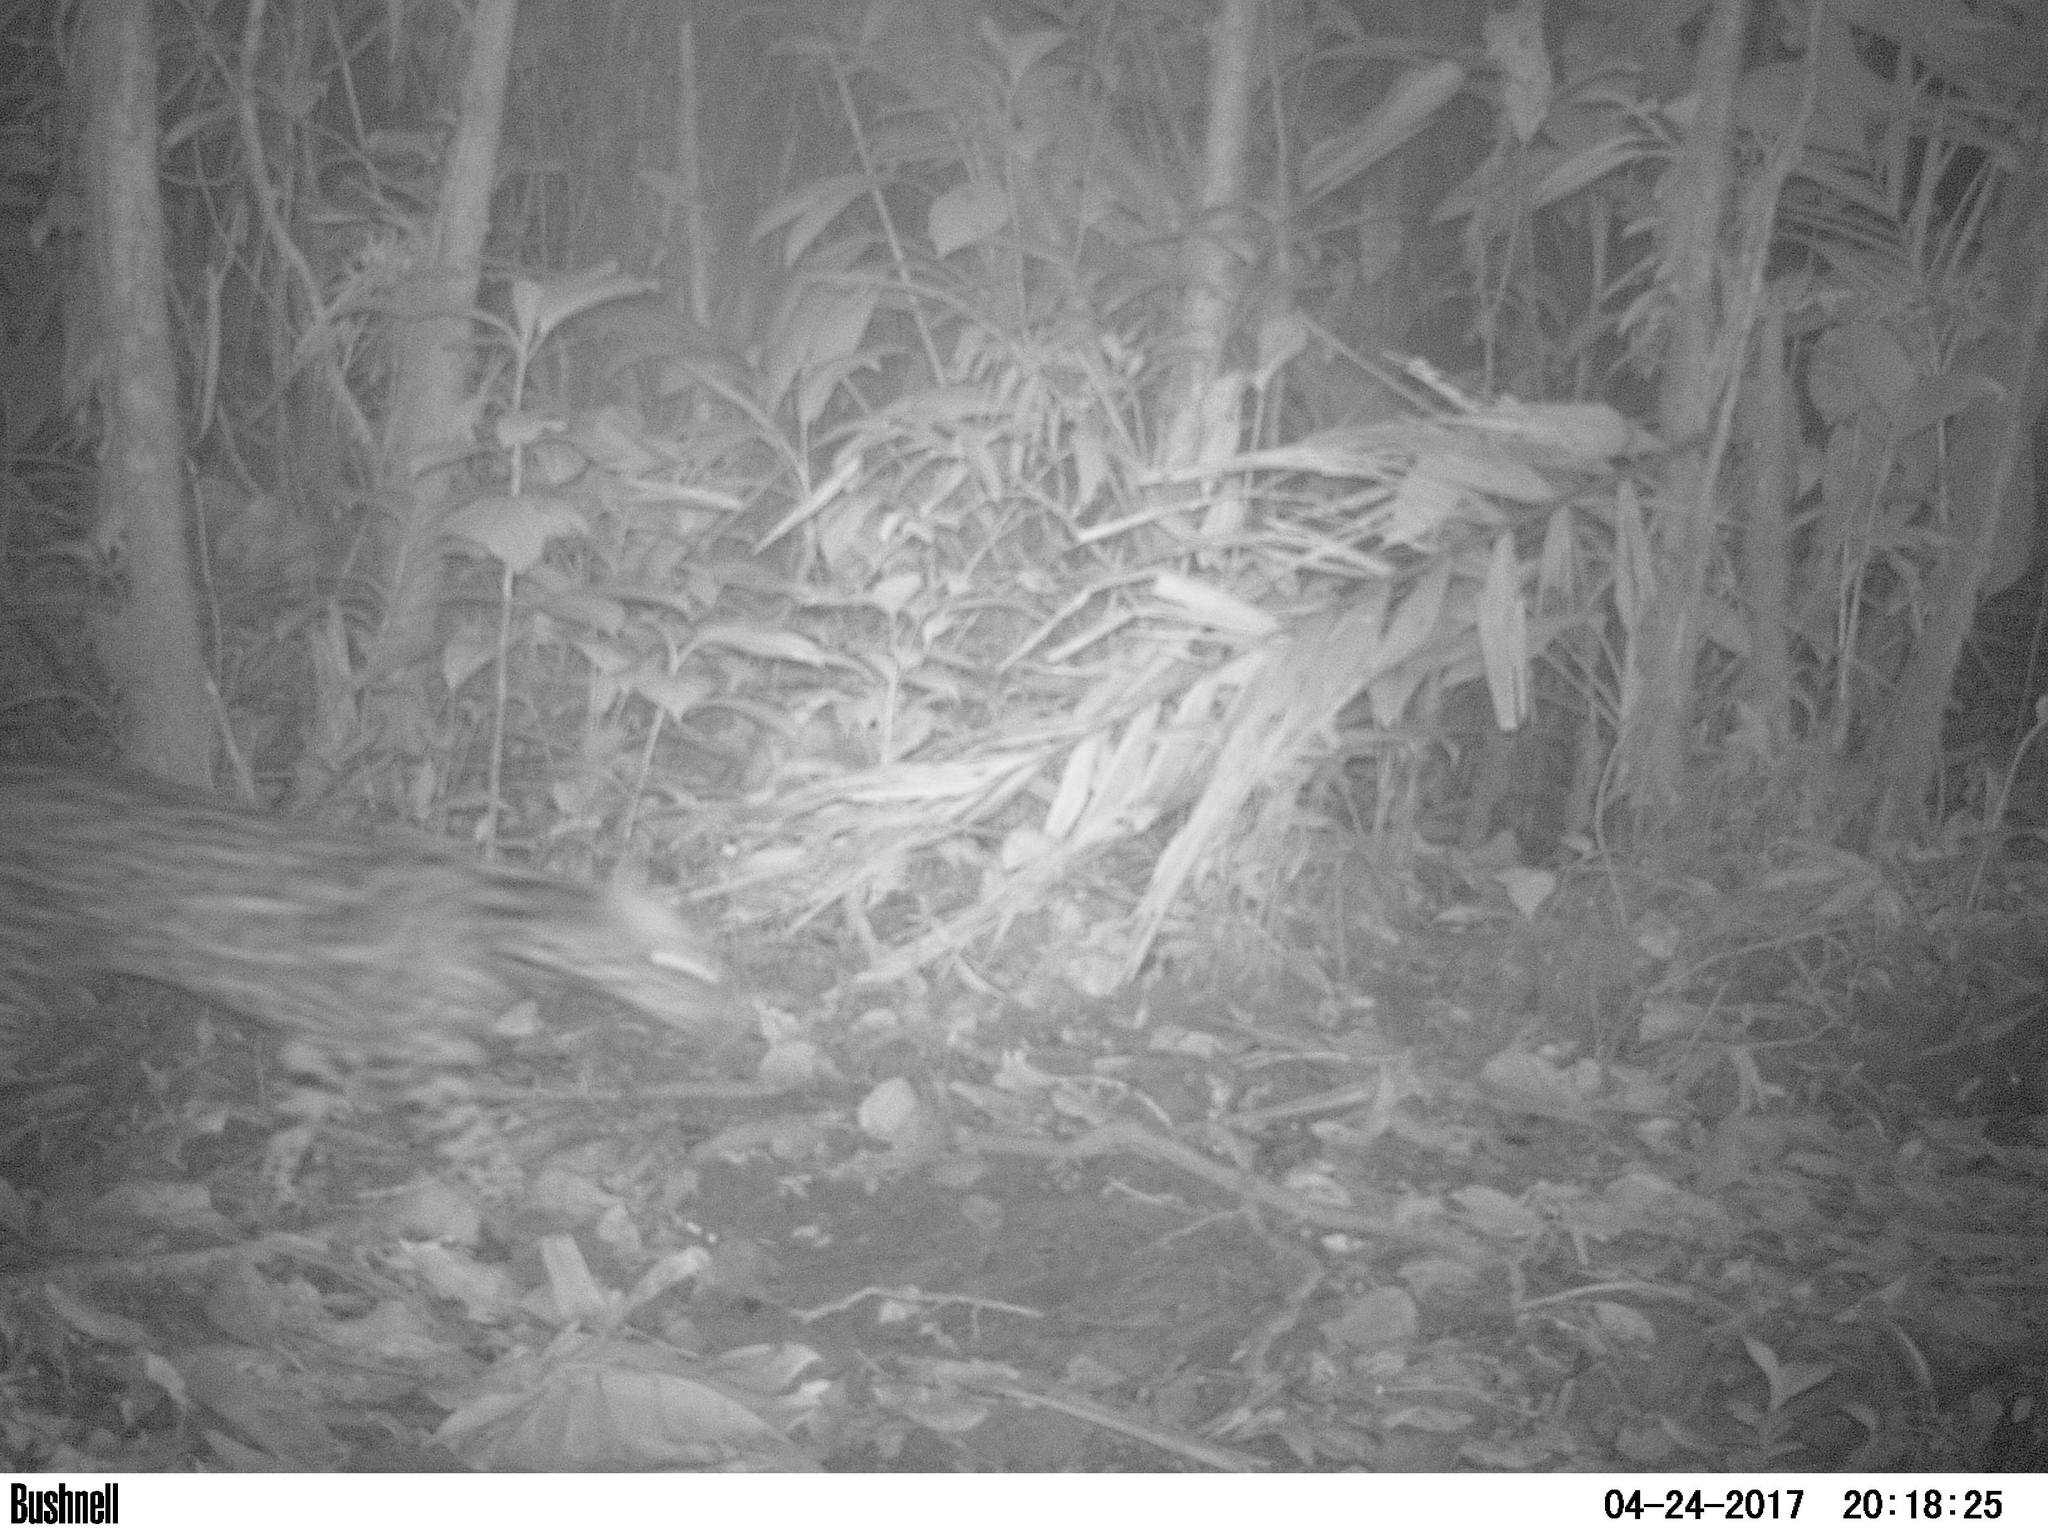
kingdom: Animalia
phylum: Chordata
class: Mammalia
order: Carnivora
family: Felidae
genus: Leopardus
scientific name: Leopardus pardalis
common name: Ocelot
